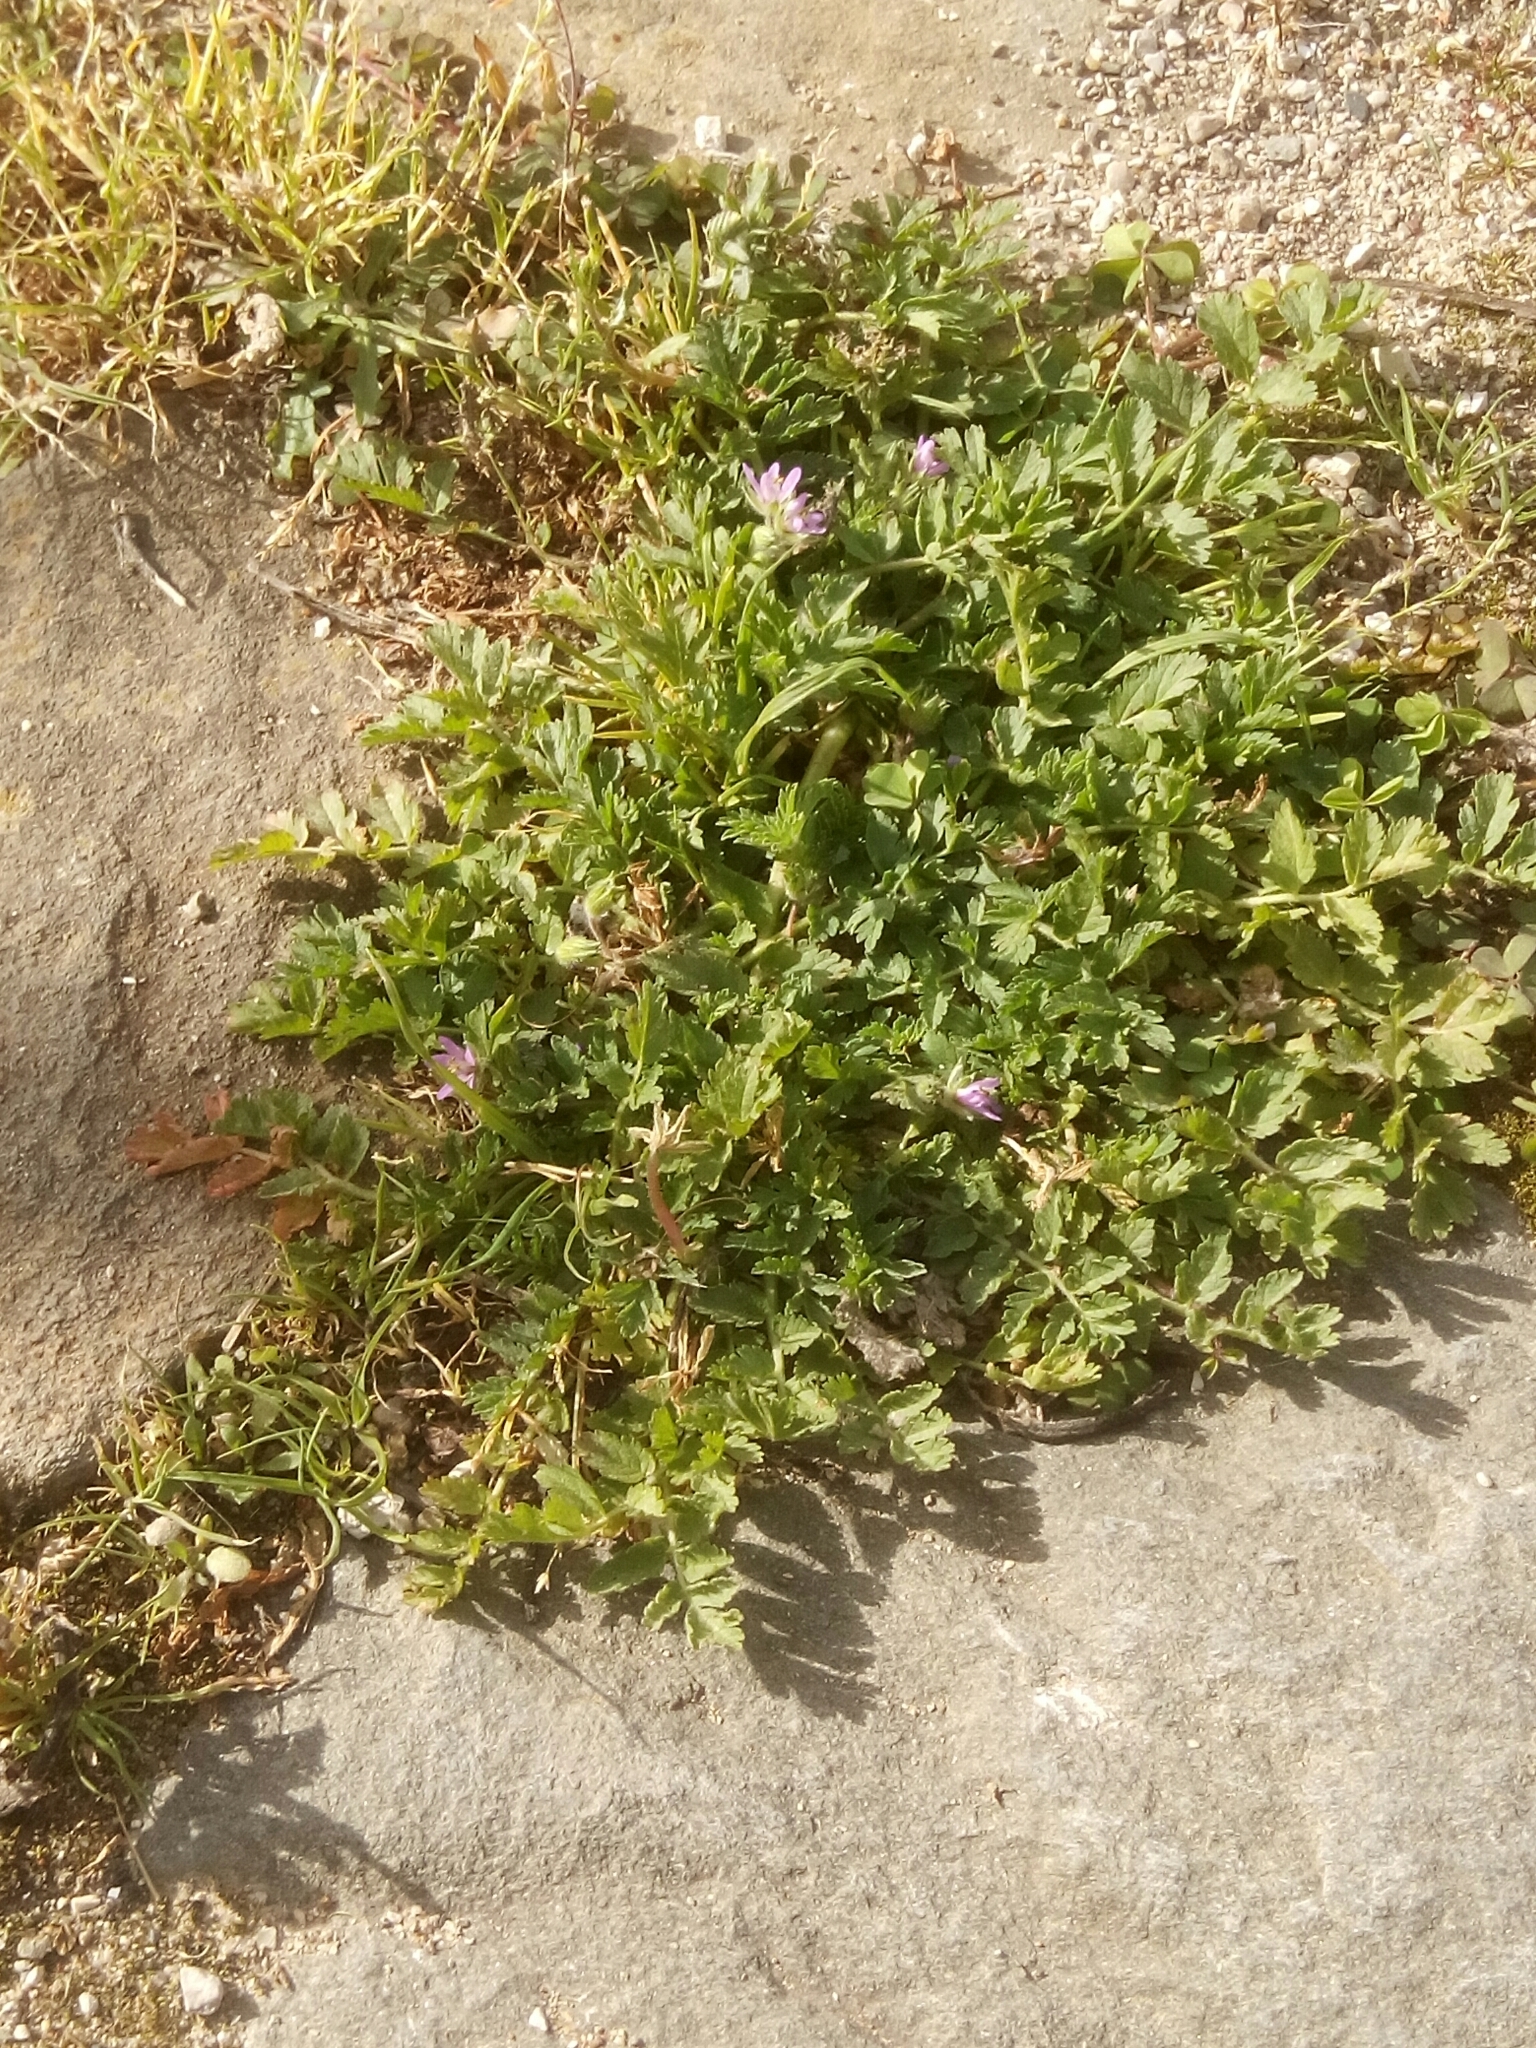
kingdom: Plantae
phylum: Tracheophyta
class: Magnoliopsida
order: Geraniales
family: Geraniaceae
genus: Erodium
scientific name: Erodium moschatum
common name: Musk stork's-bill
